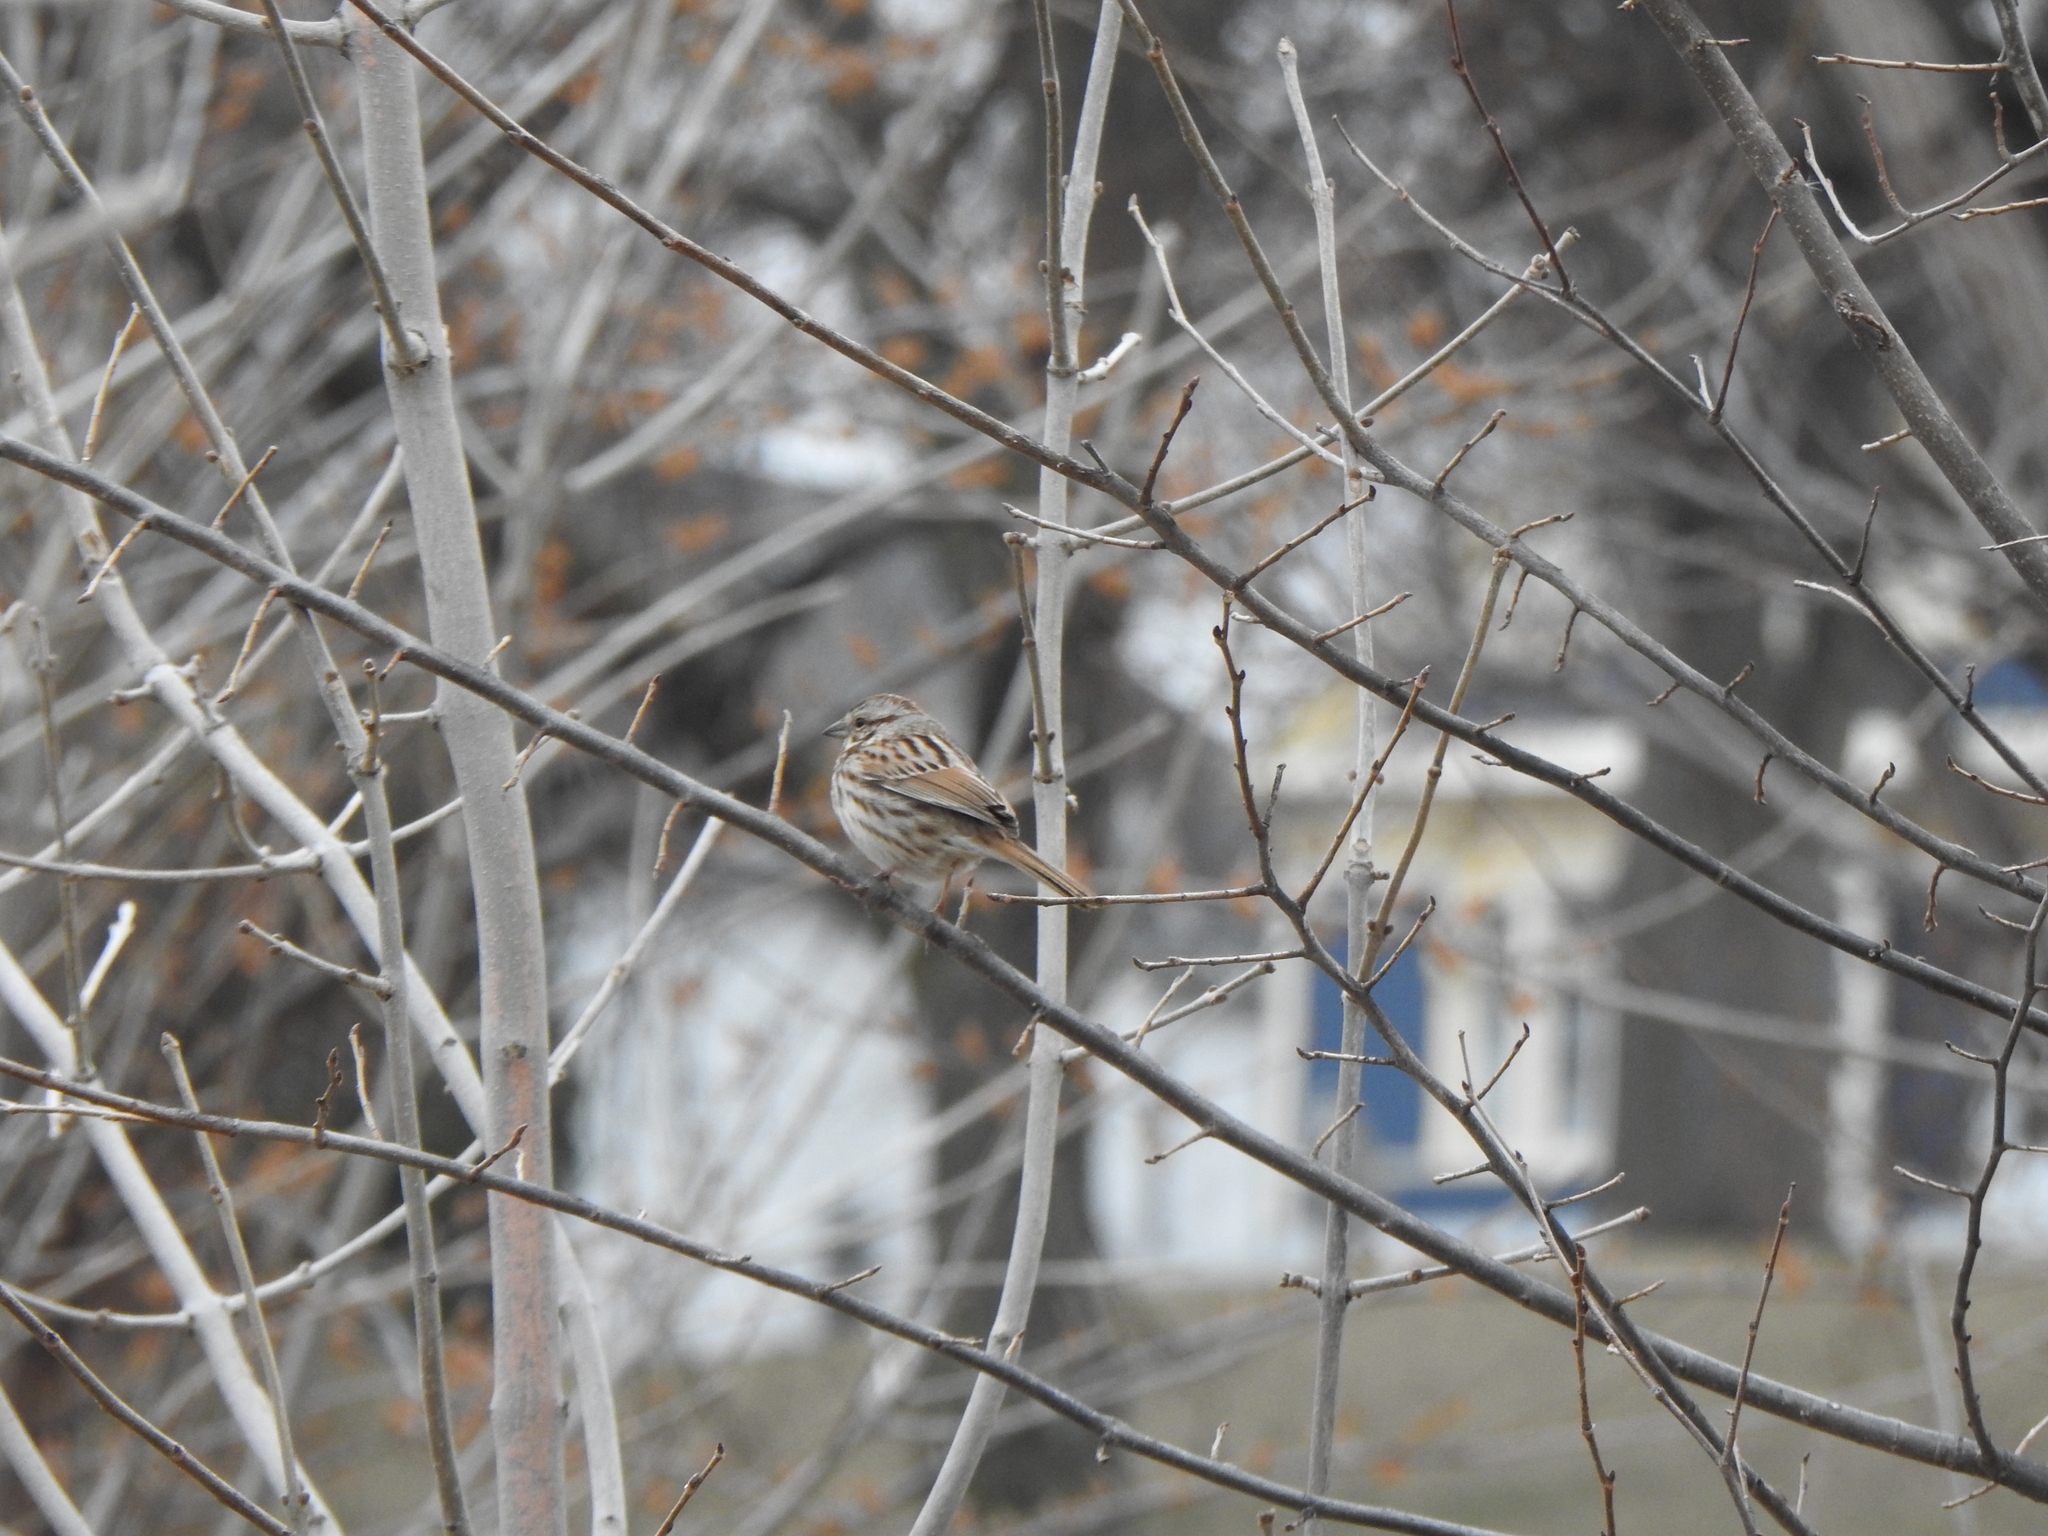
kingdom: Animalia
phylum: Chordata
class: Aves
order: Passeriformes
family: Passerellidae
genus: Melospiza
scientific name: Melospiza melodia
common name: Song sparrow
